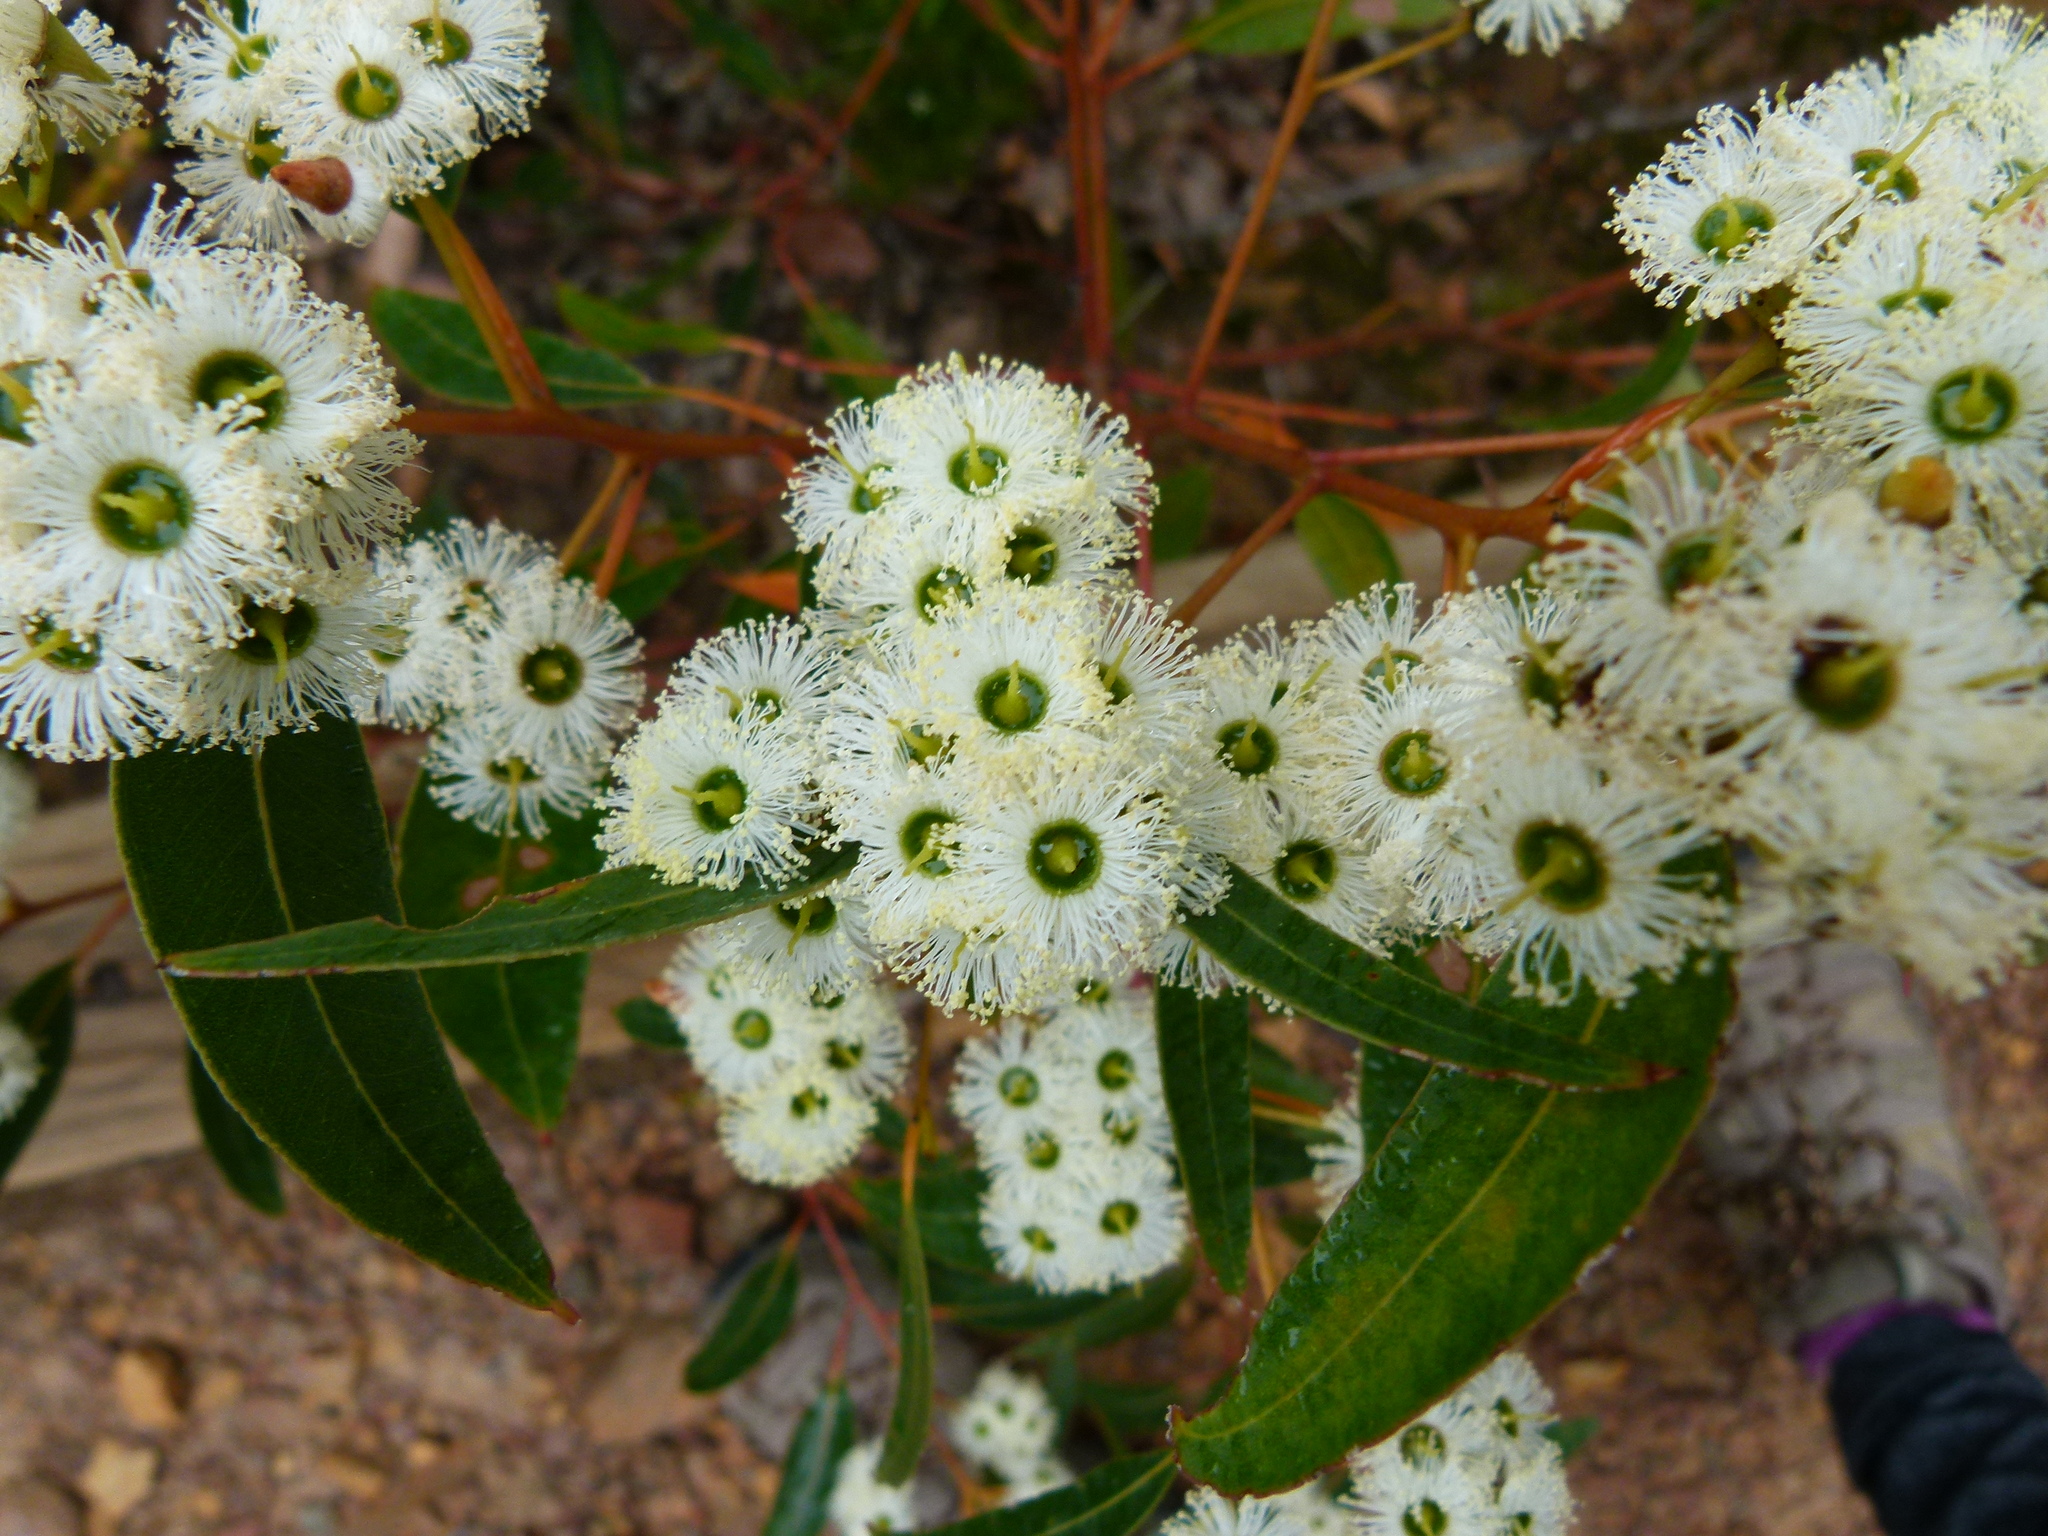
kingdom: Plantae
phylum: Tracheophyta
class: Magnoliopsida
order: Myrtales
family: Myrtaceae
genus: Eucalyptus
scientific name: Eucalyptus marginata
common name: Jarrah
